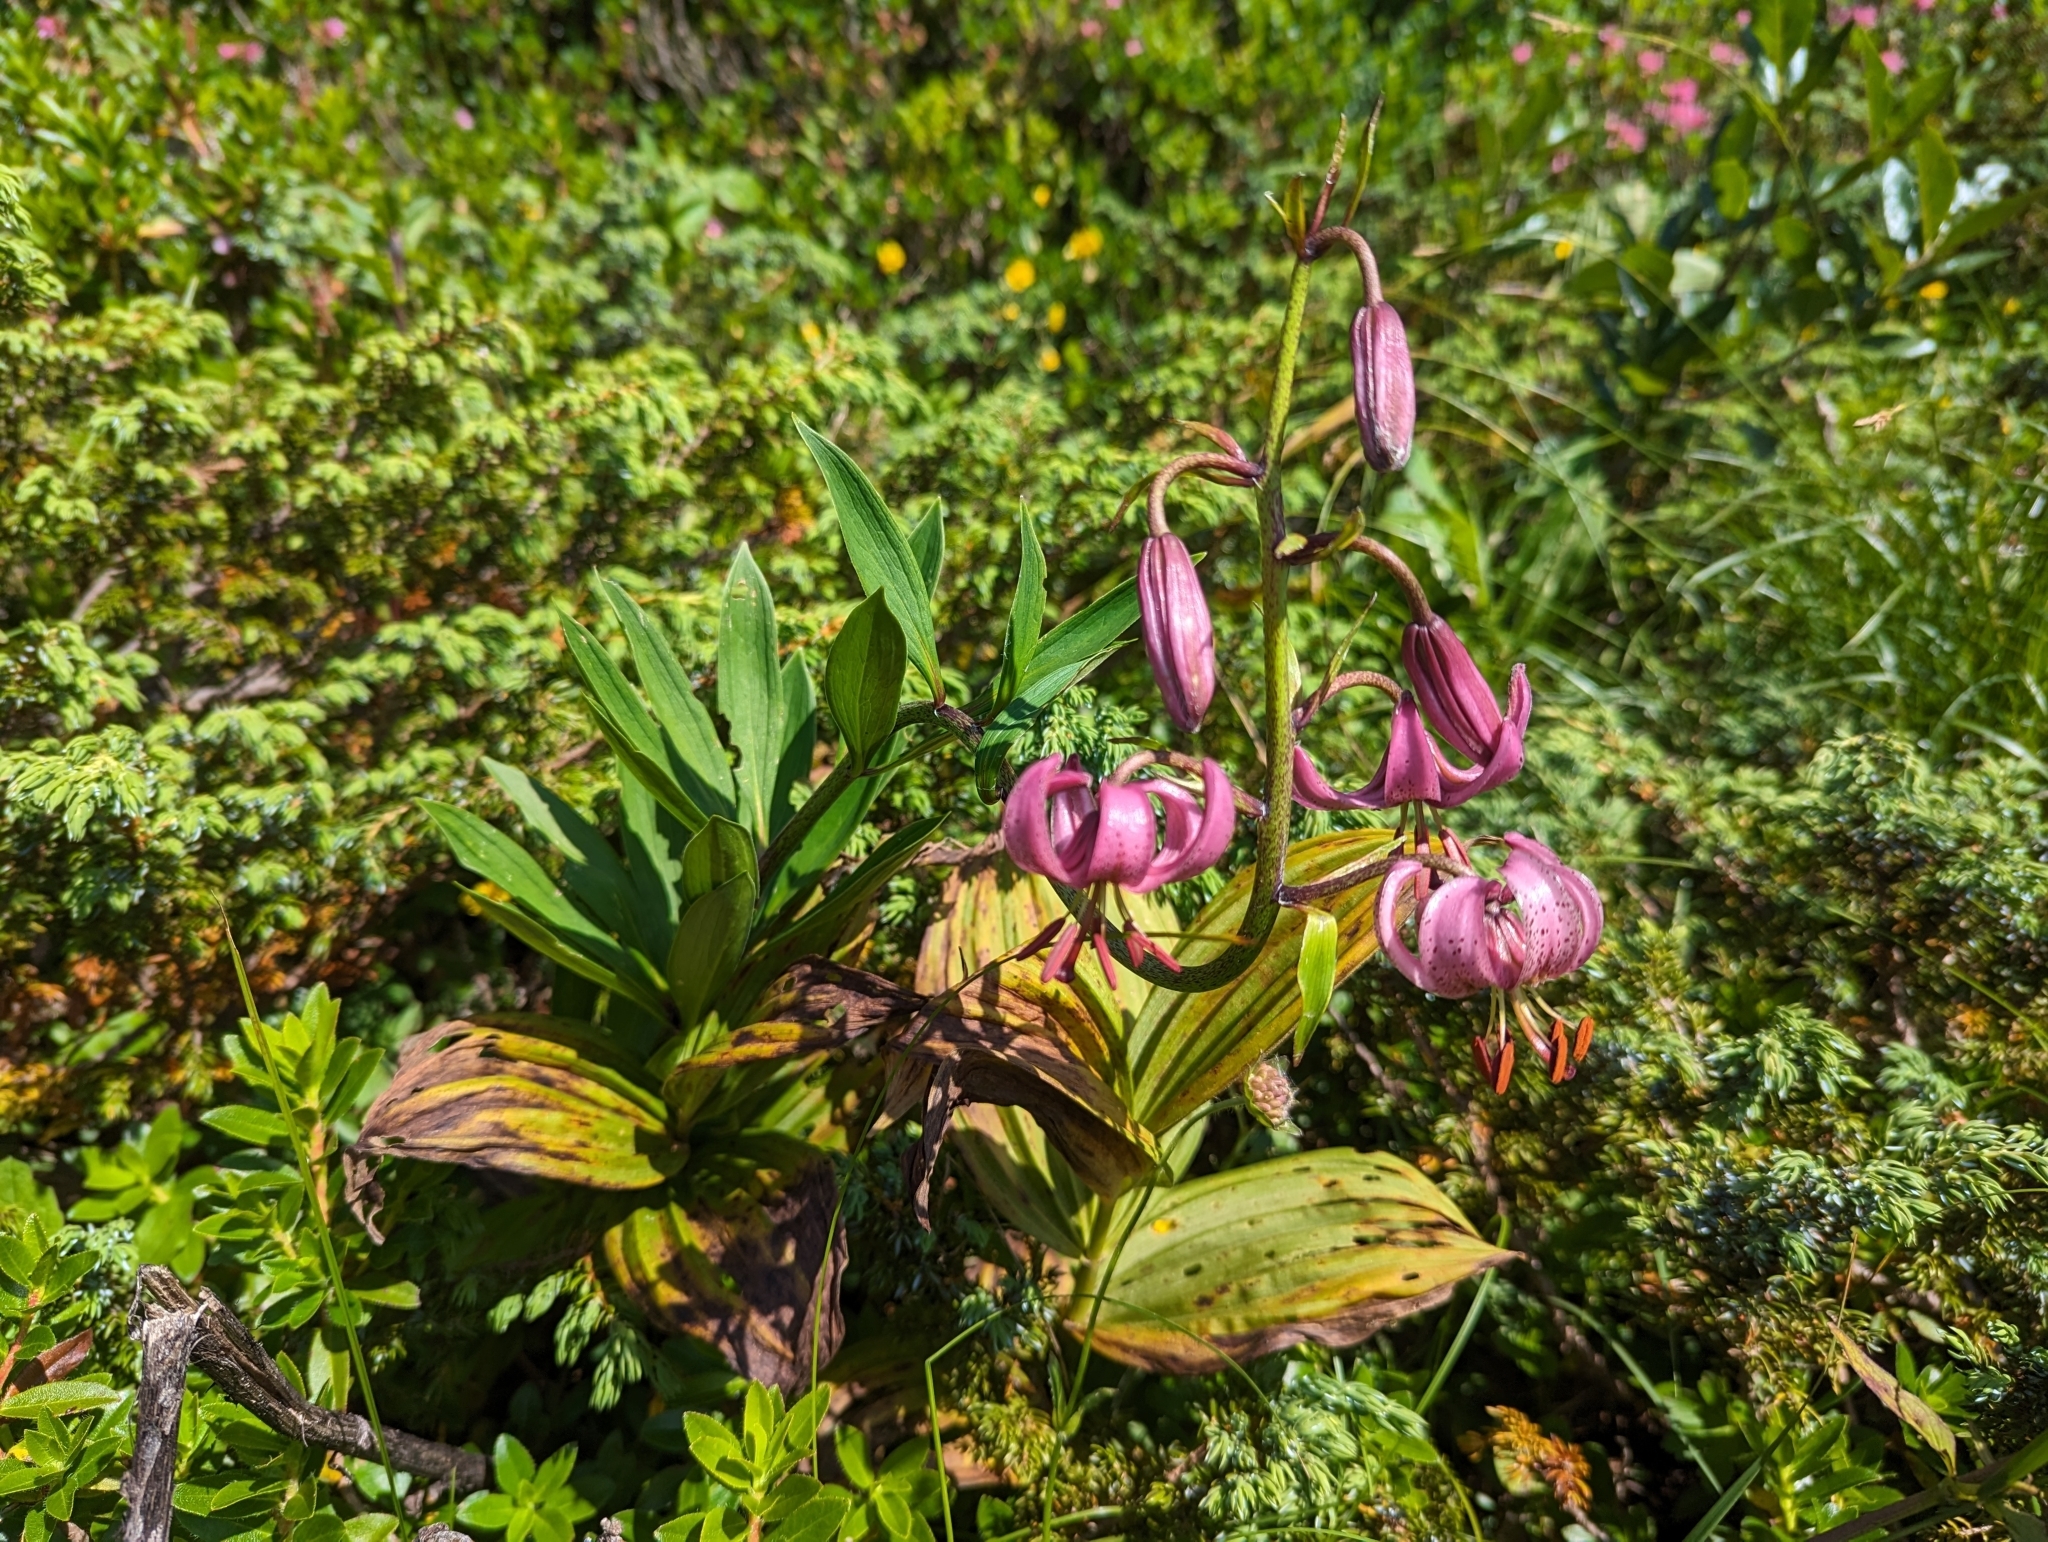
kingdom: Plantae
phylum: Tracheophyta
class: Liliopsida
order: Liliales
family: Liliaceae
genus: Lilium
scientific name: Lilium martagon
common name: Martagon lily
